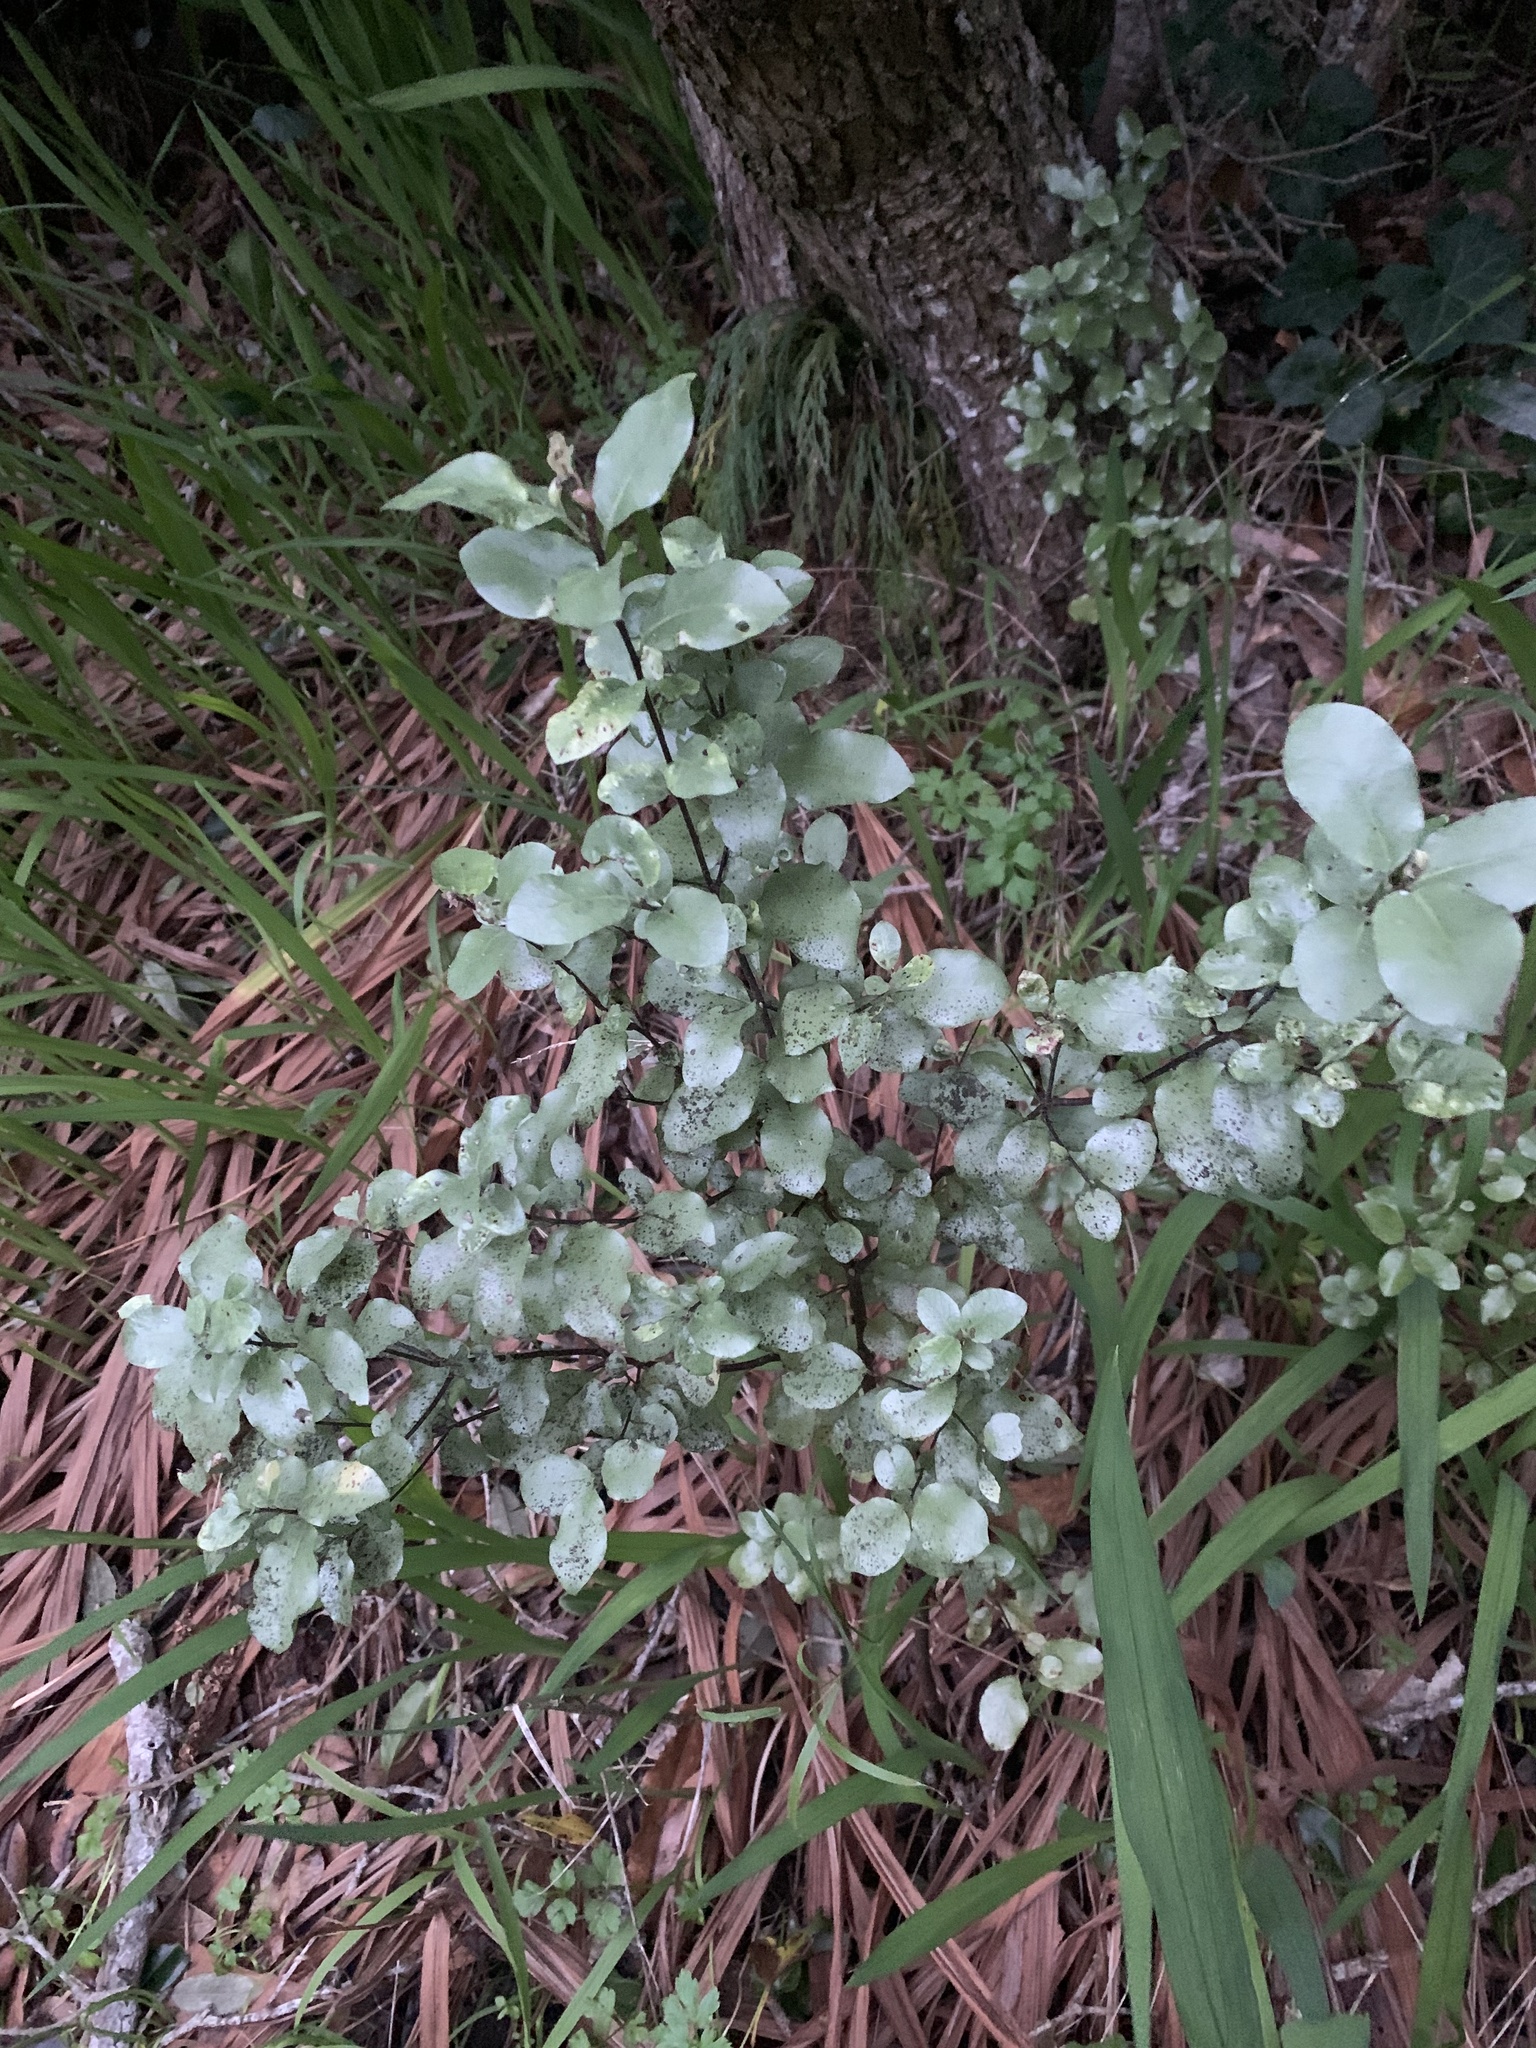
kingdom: Plantae
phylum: Tracheophyta
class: Magnoliopsida
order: Apiales
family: Pittosporaceae
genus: Pittosporum
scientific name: Pittosporum tenuifolium
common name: Kohuhu
